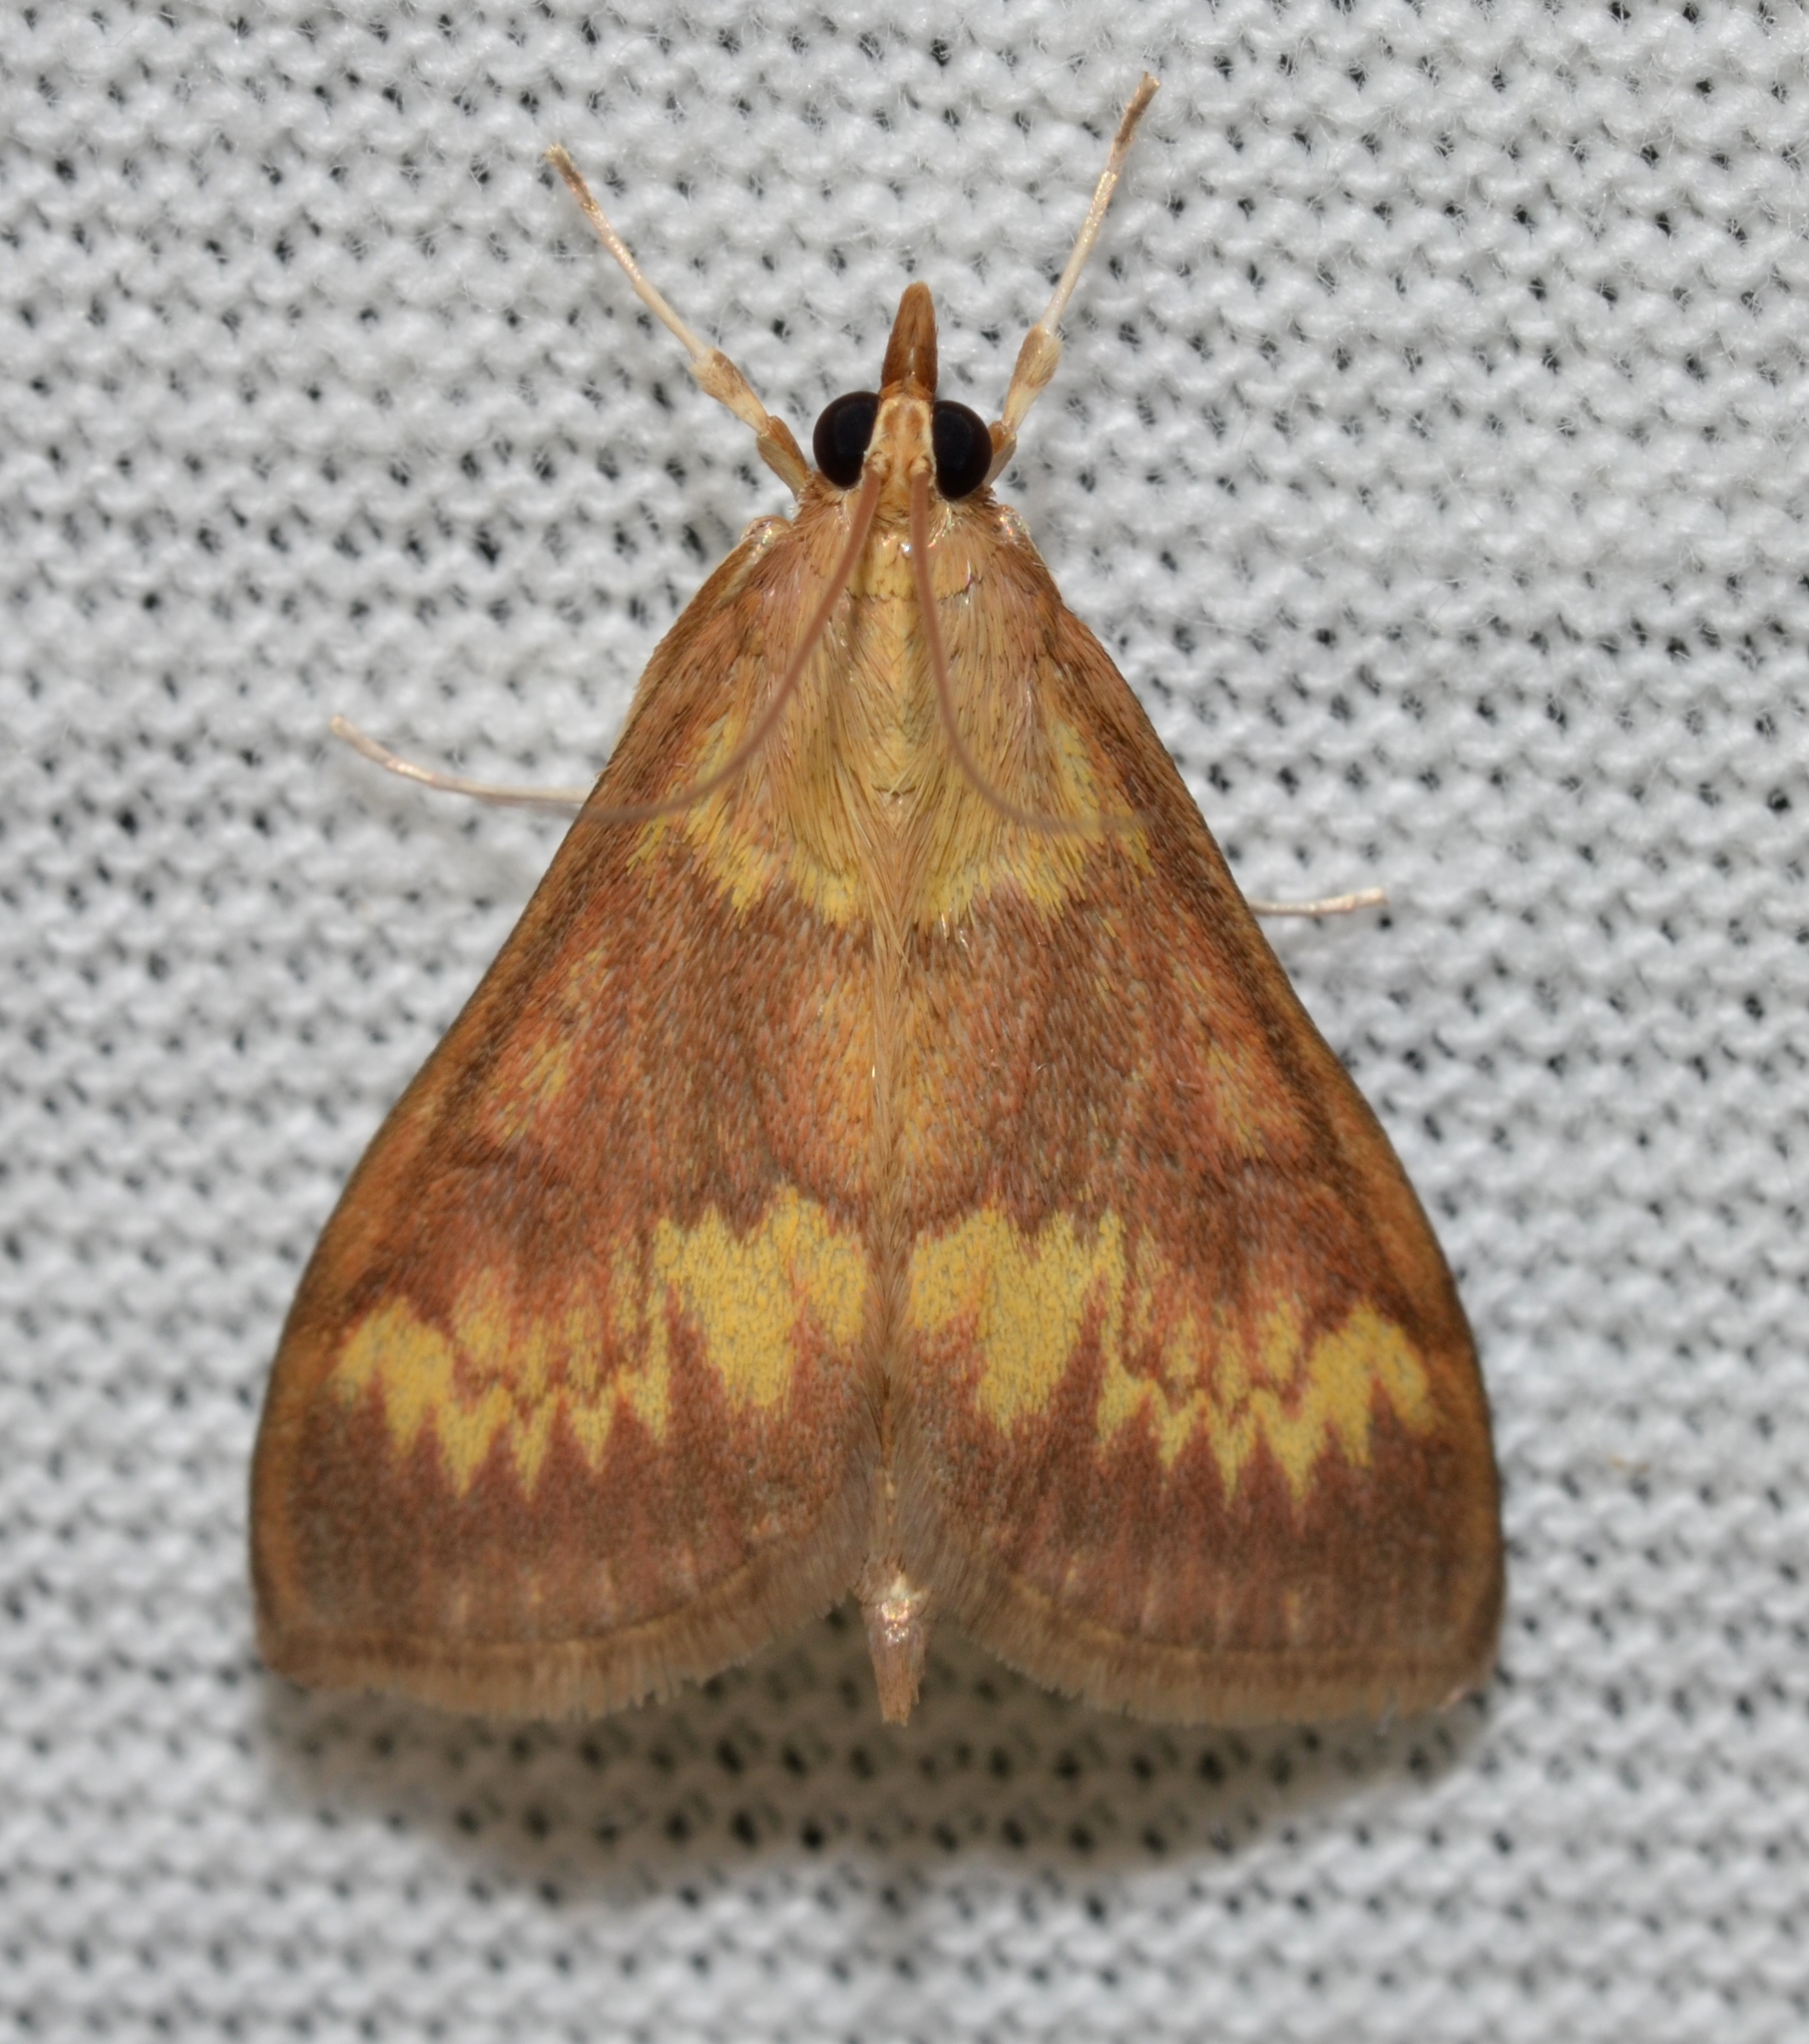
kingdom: Animalia
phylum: Arthropoda
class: Insecta
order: Lepidoptera
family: Crambidae
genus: Ostrinia
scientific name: Ostrinia nubilalis
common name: European corn borer
